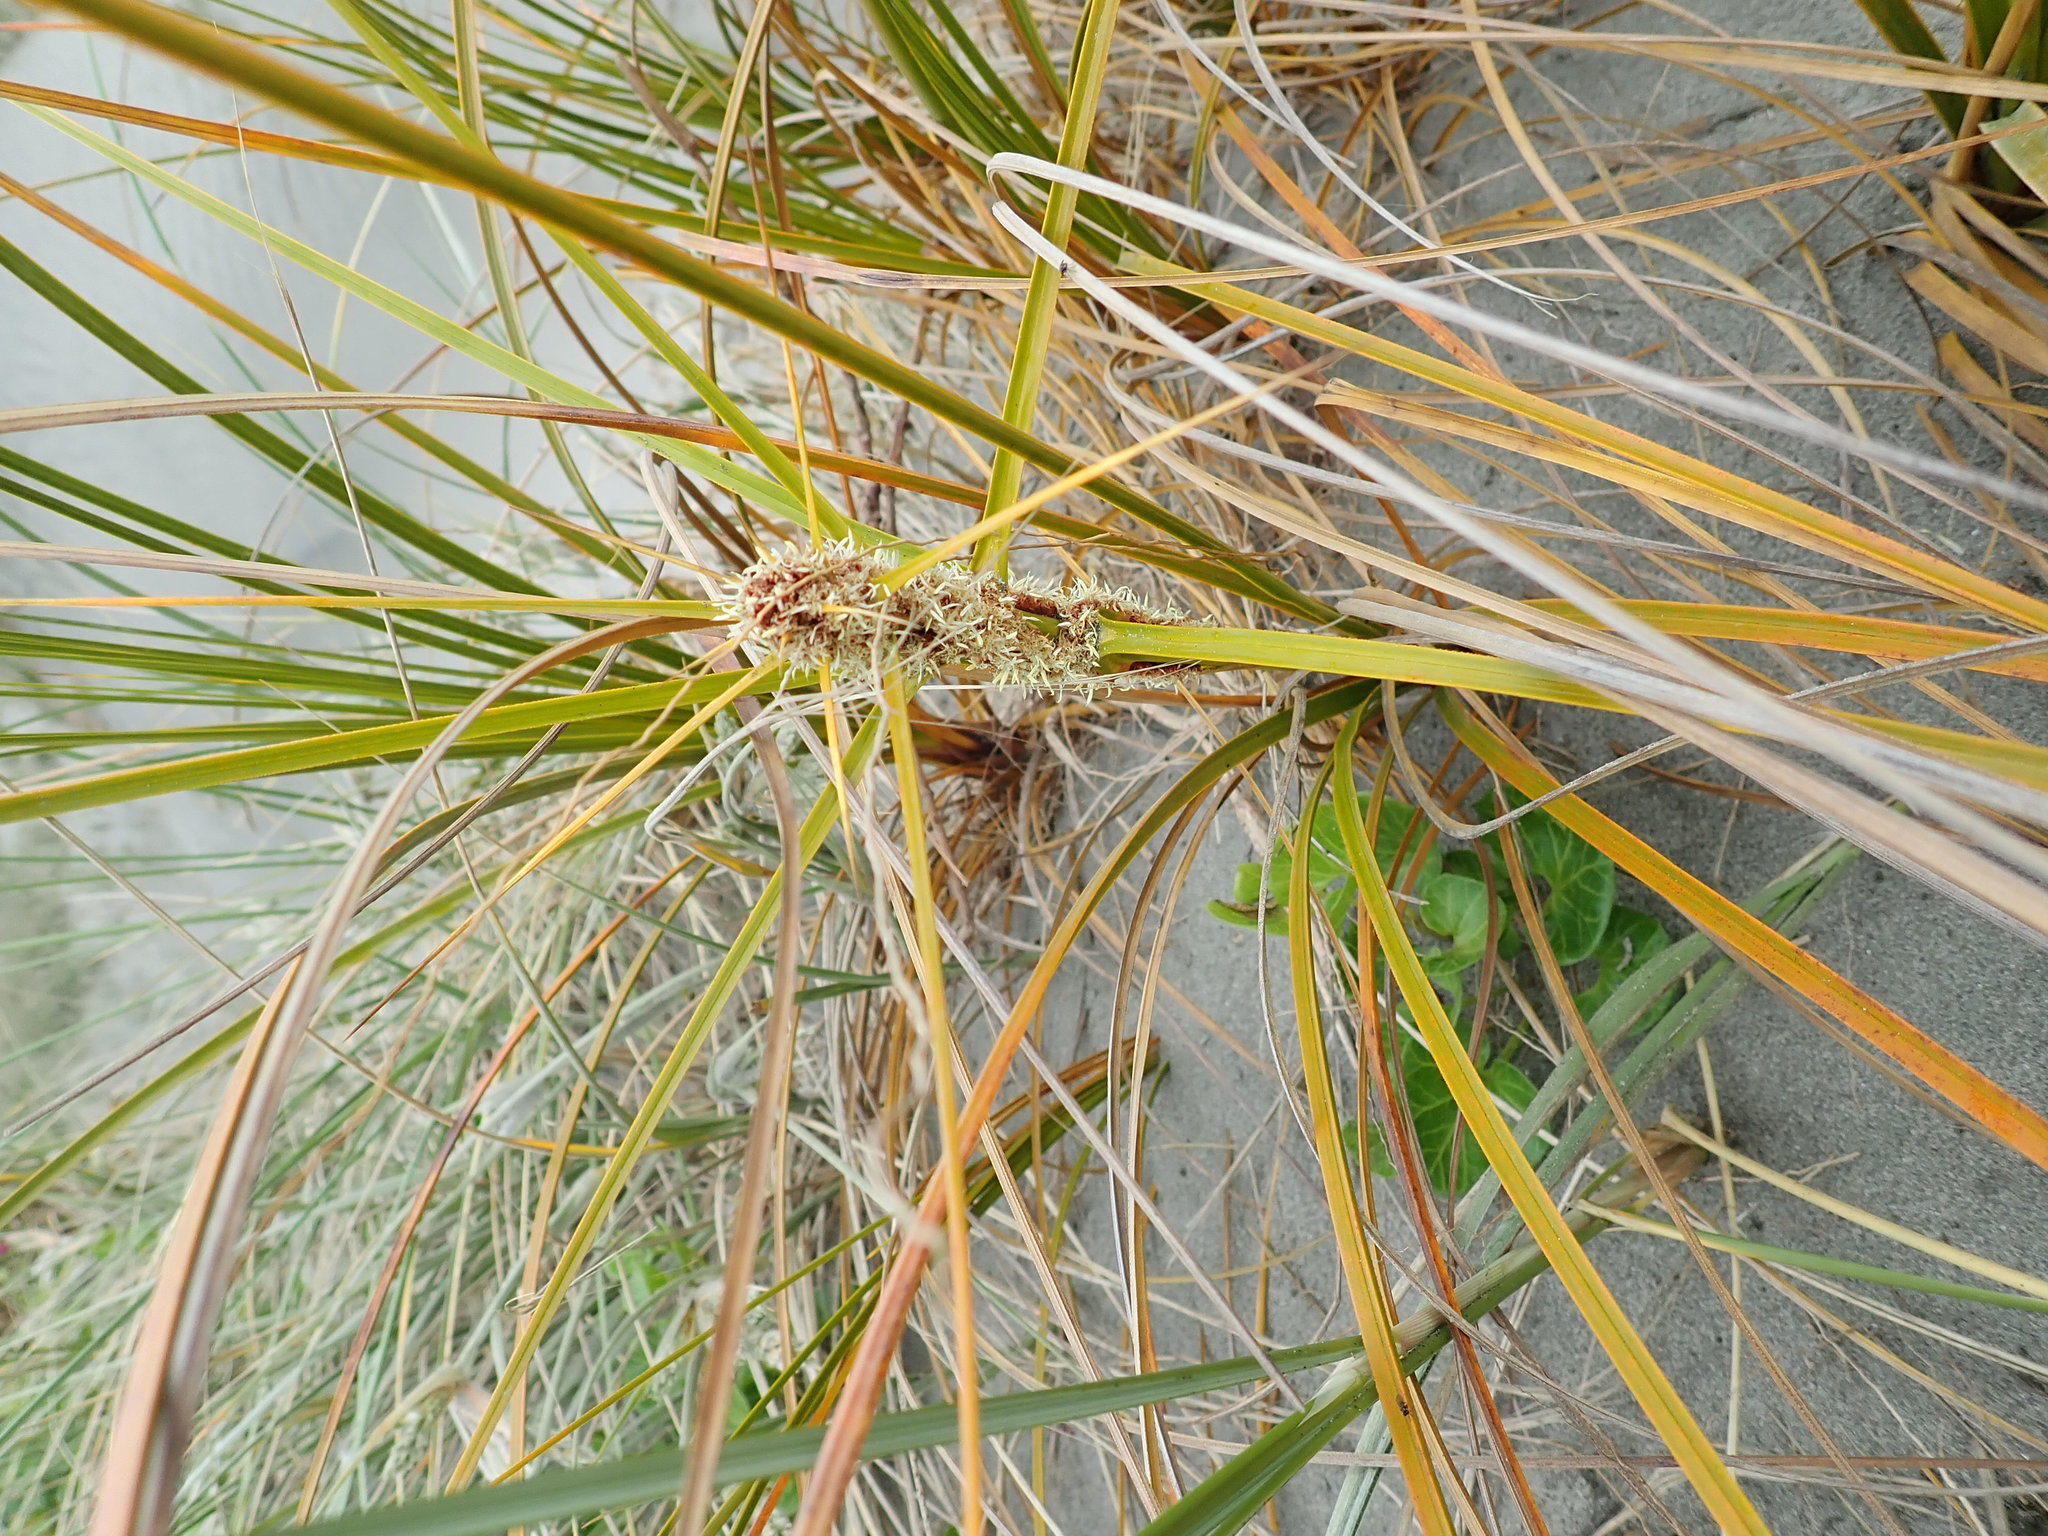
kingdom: Plantae
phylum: Tracheophyta
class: Liliopsida
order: Poales
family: Cyperaceae
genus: Ficinia
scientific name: Ficinia spiralis
